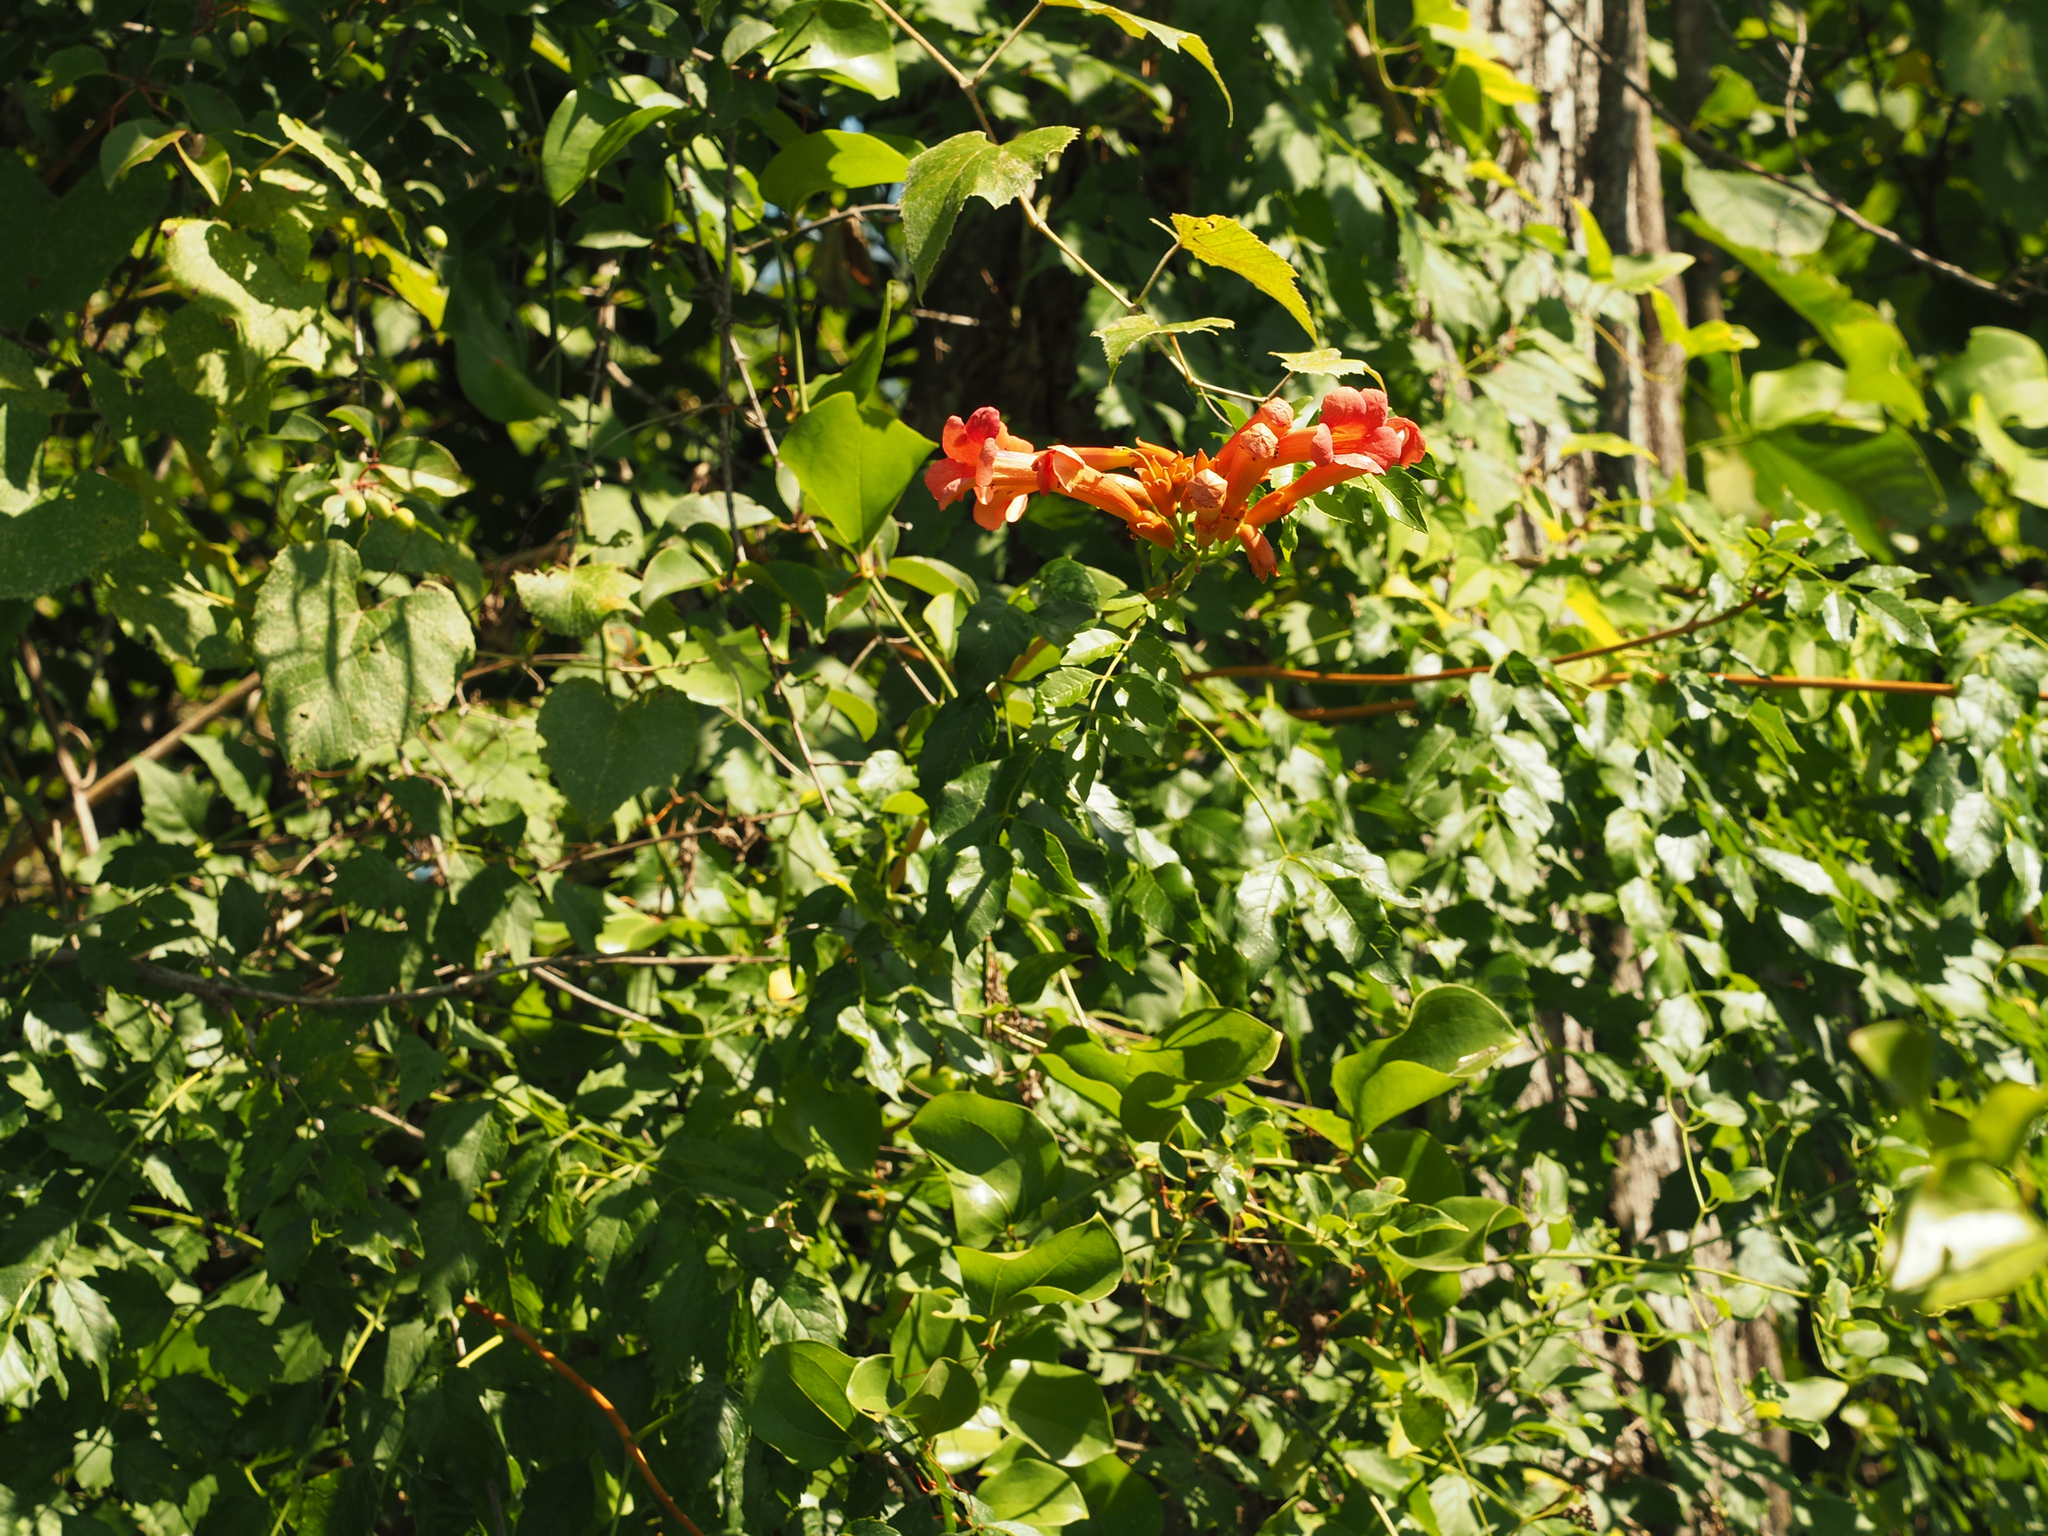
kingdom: Plantae
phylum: Tracheophyta
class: Magnoliopsida
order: Lamiales
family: Bignoniaceae
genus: Campsis
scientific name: Campsis radicans
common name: Trumpet-creeper
